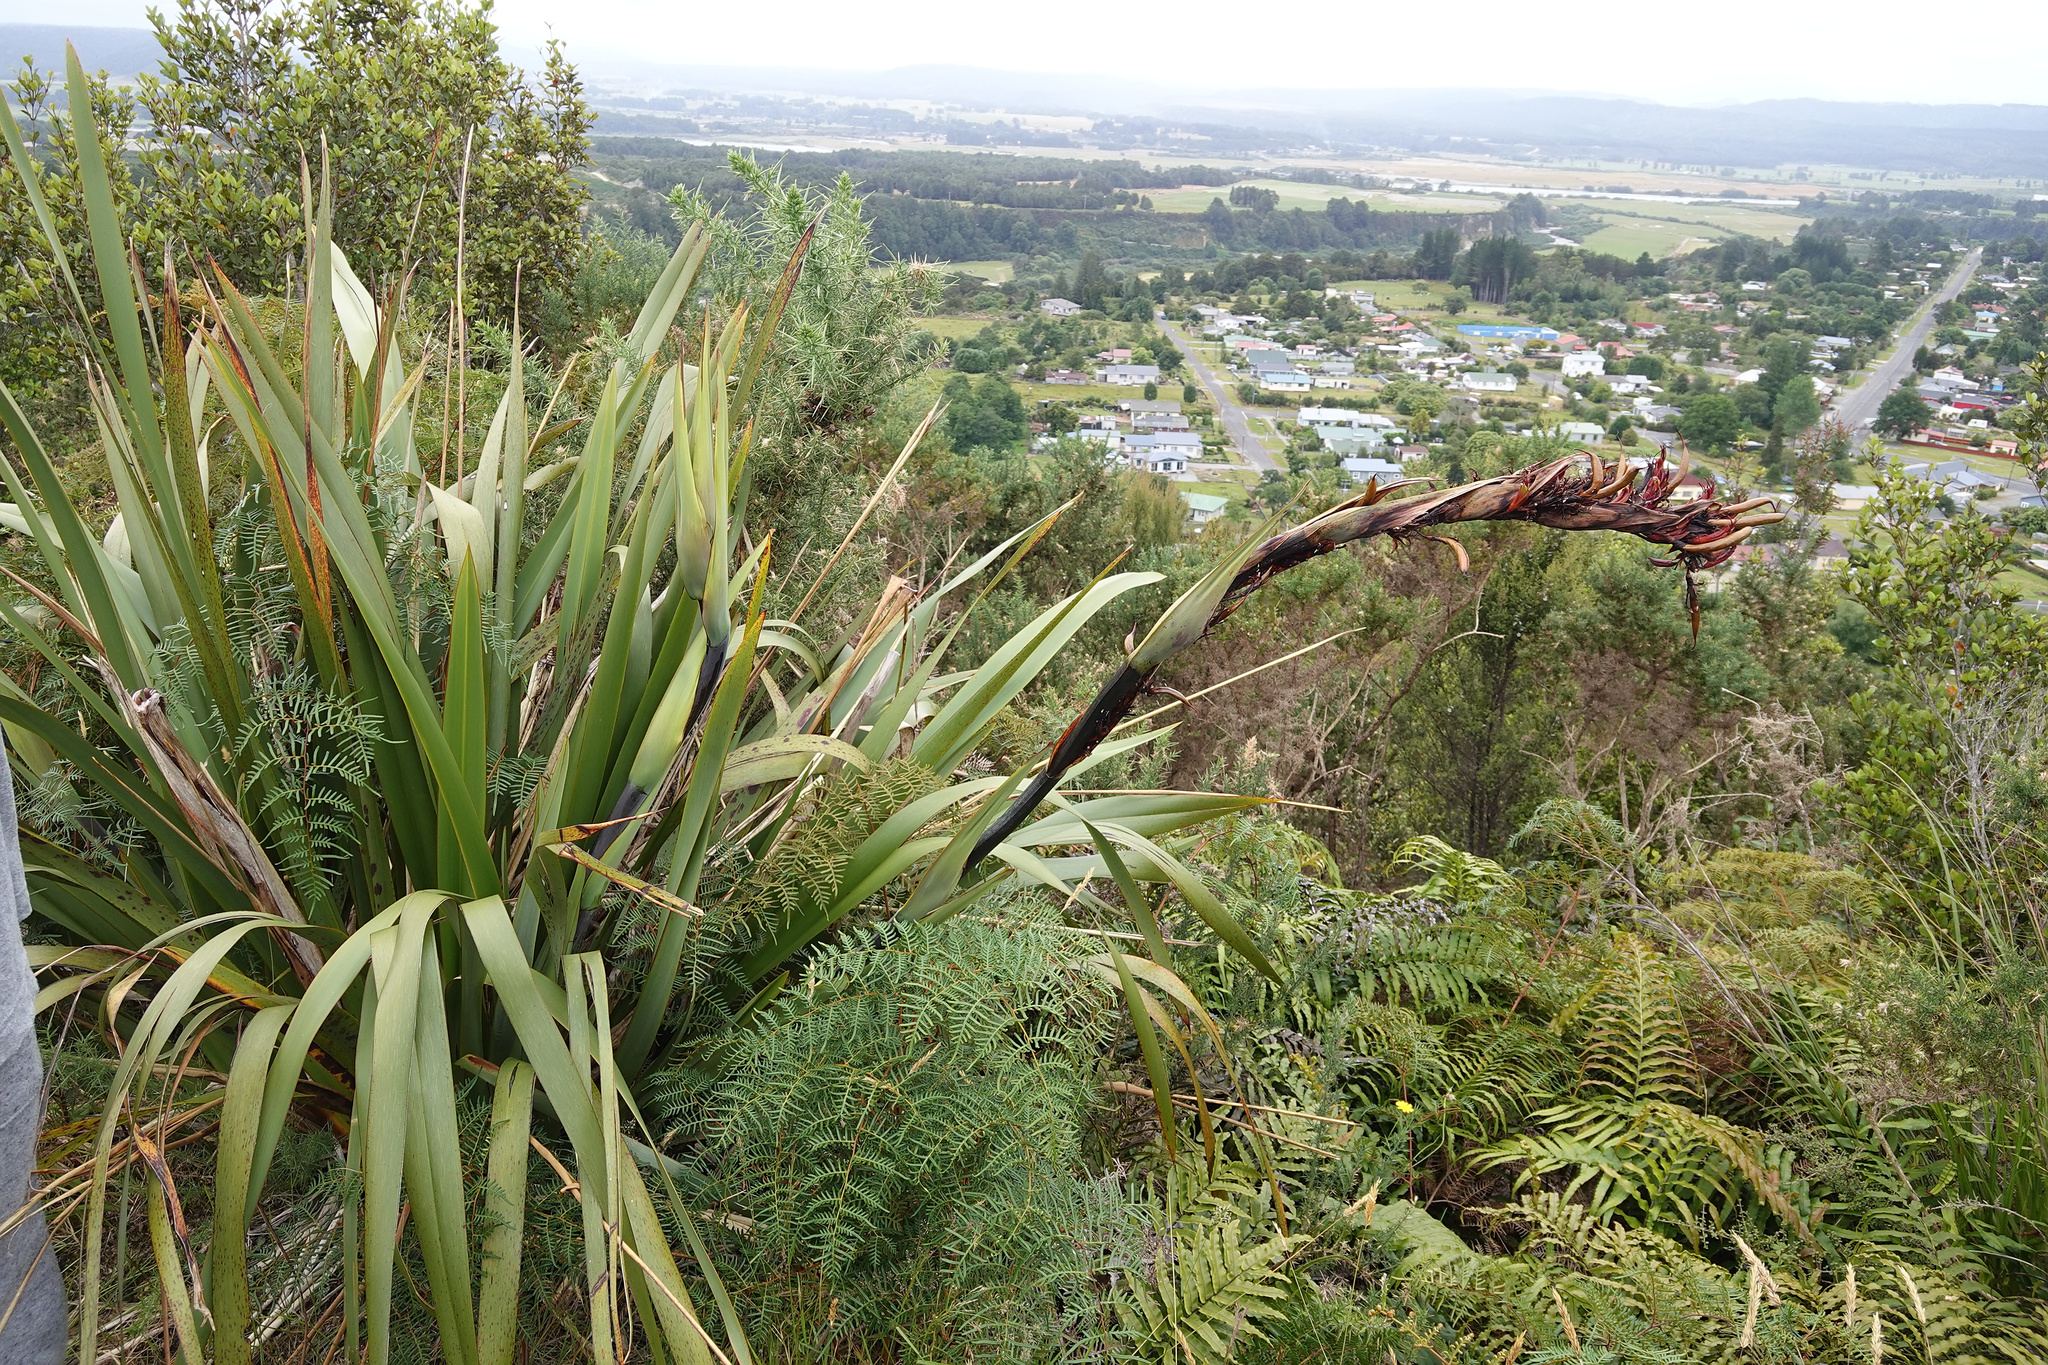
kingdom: Plantae
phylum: Tracheophyta
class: Liliopsida
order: Asparagales
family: Asphodelaceae
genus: Phormium
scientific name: Phormium colensoi
